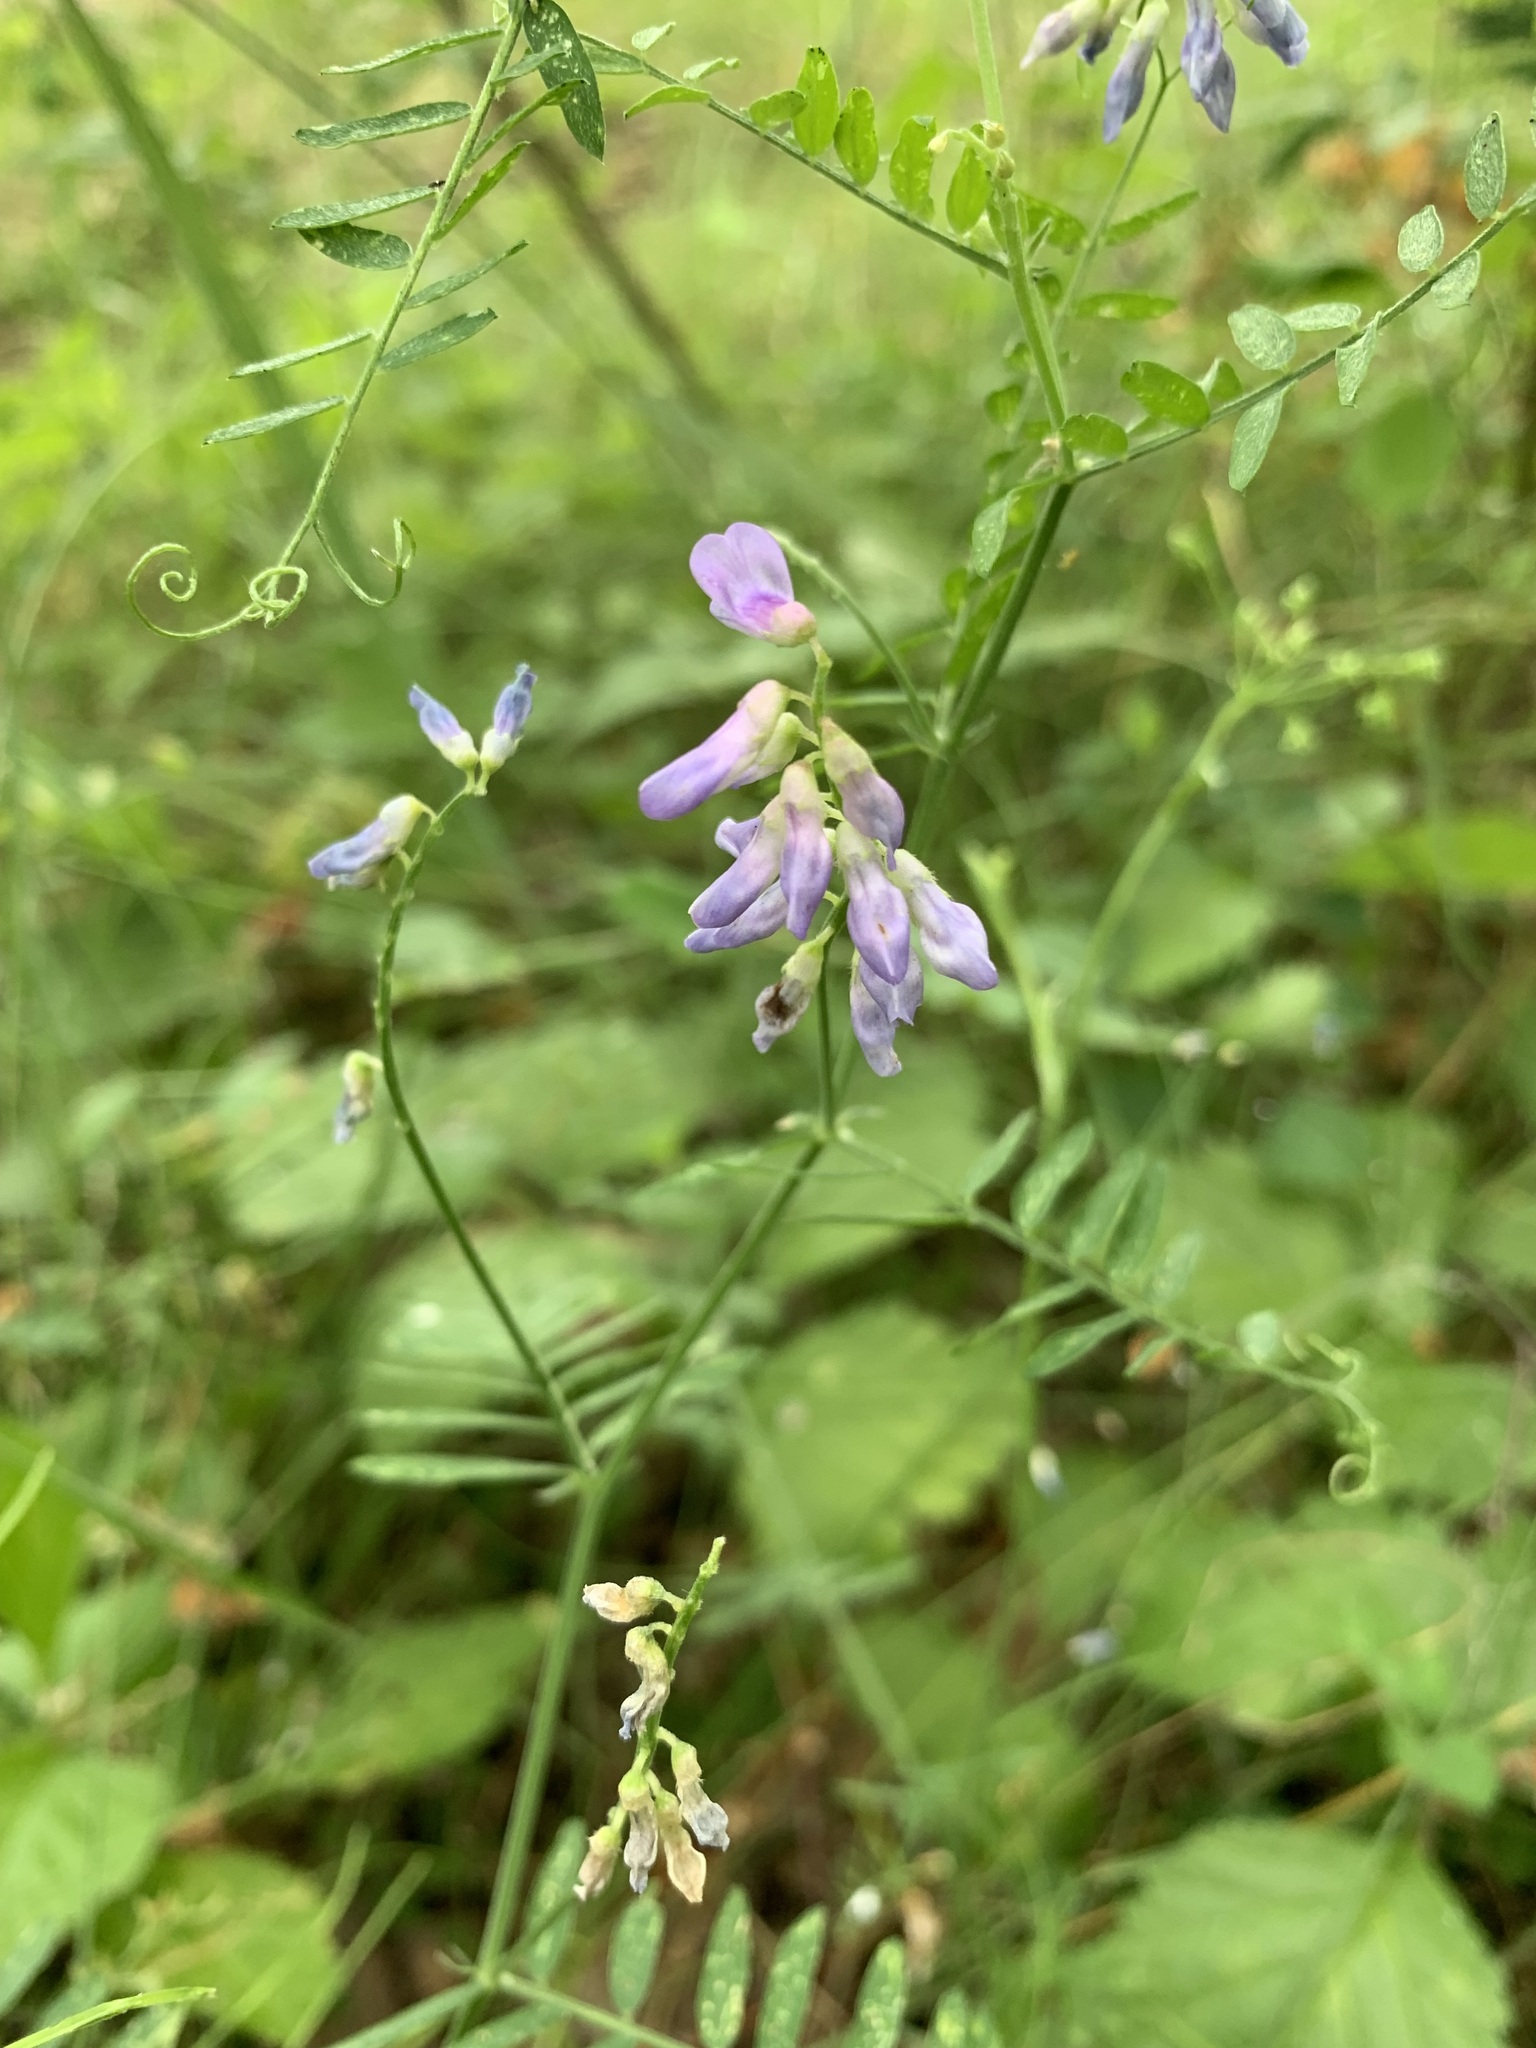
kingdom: Plantae
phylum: Tracheophyta
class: Magnoliopsida
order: Fabales
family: Fabaceae
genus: Vicia
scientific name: Vicia cracca
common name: Bird vetch
